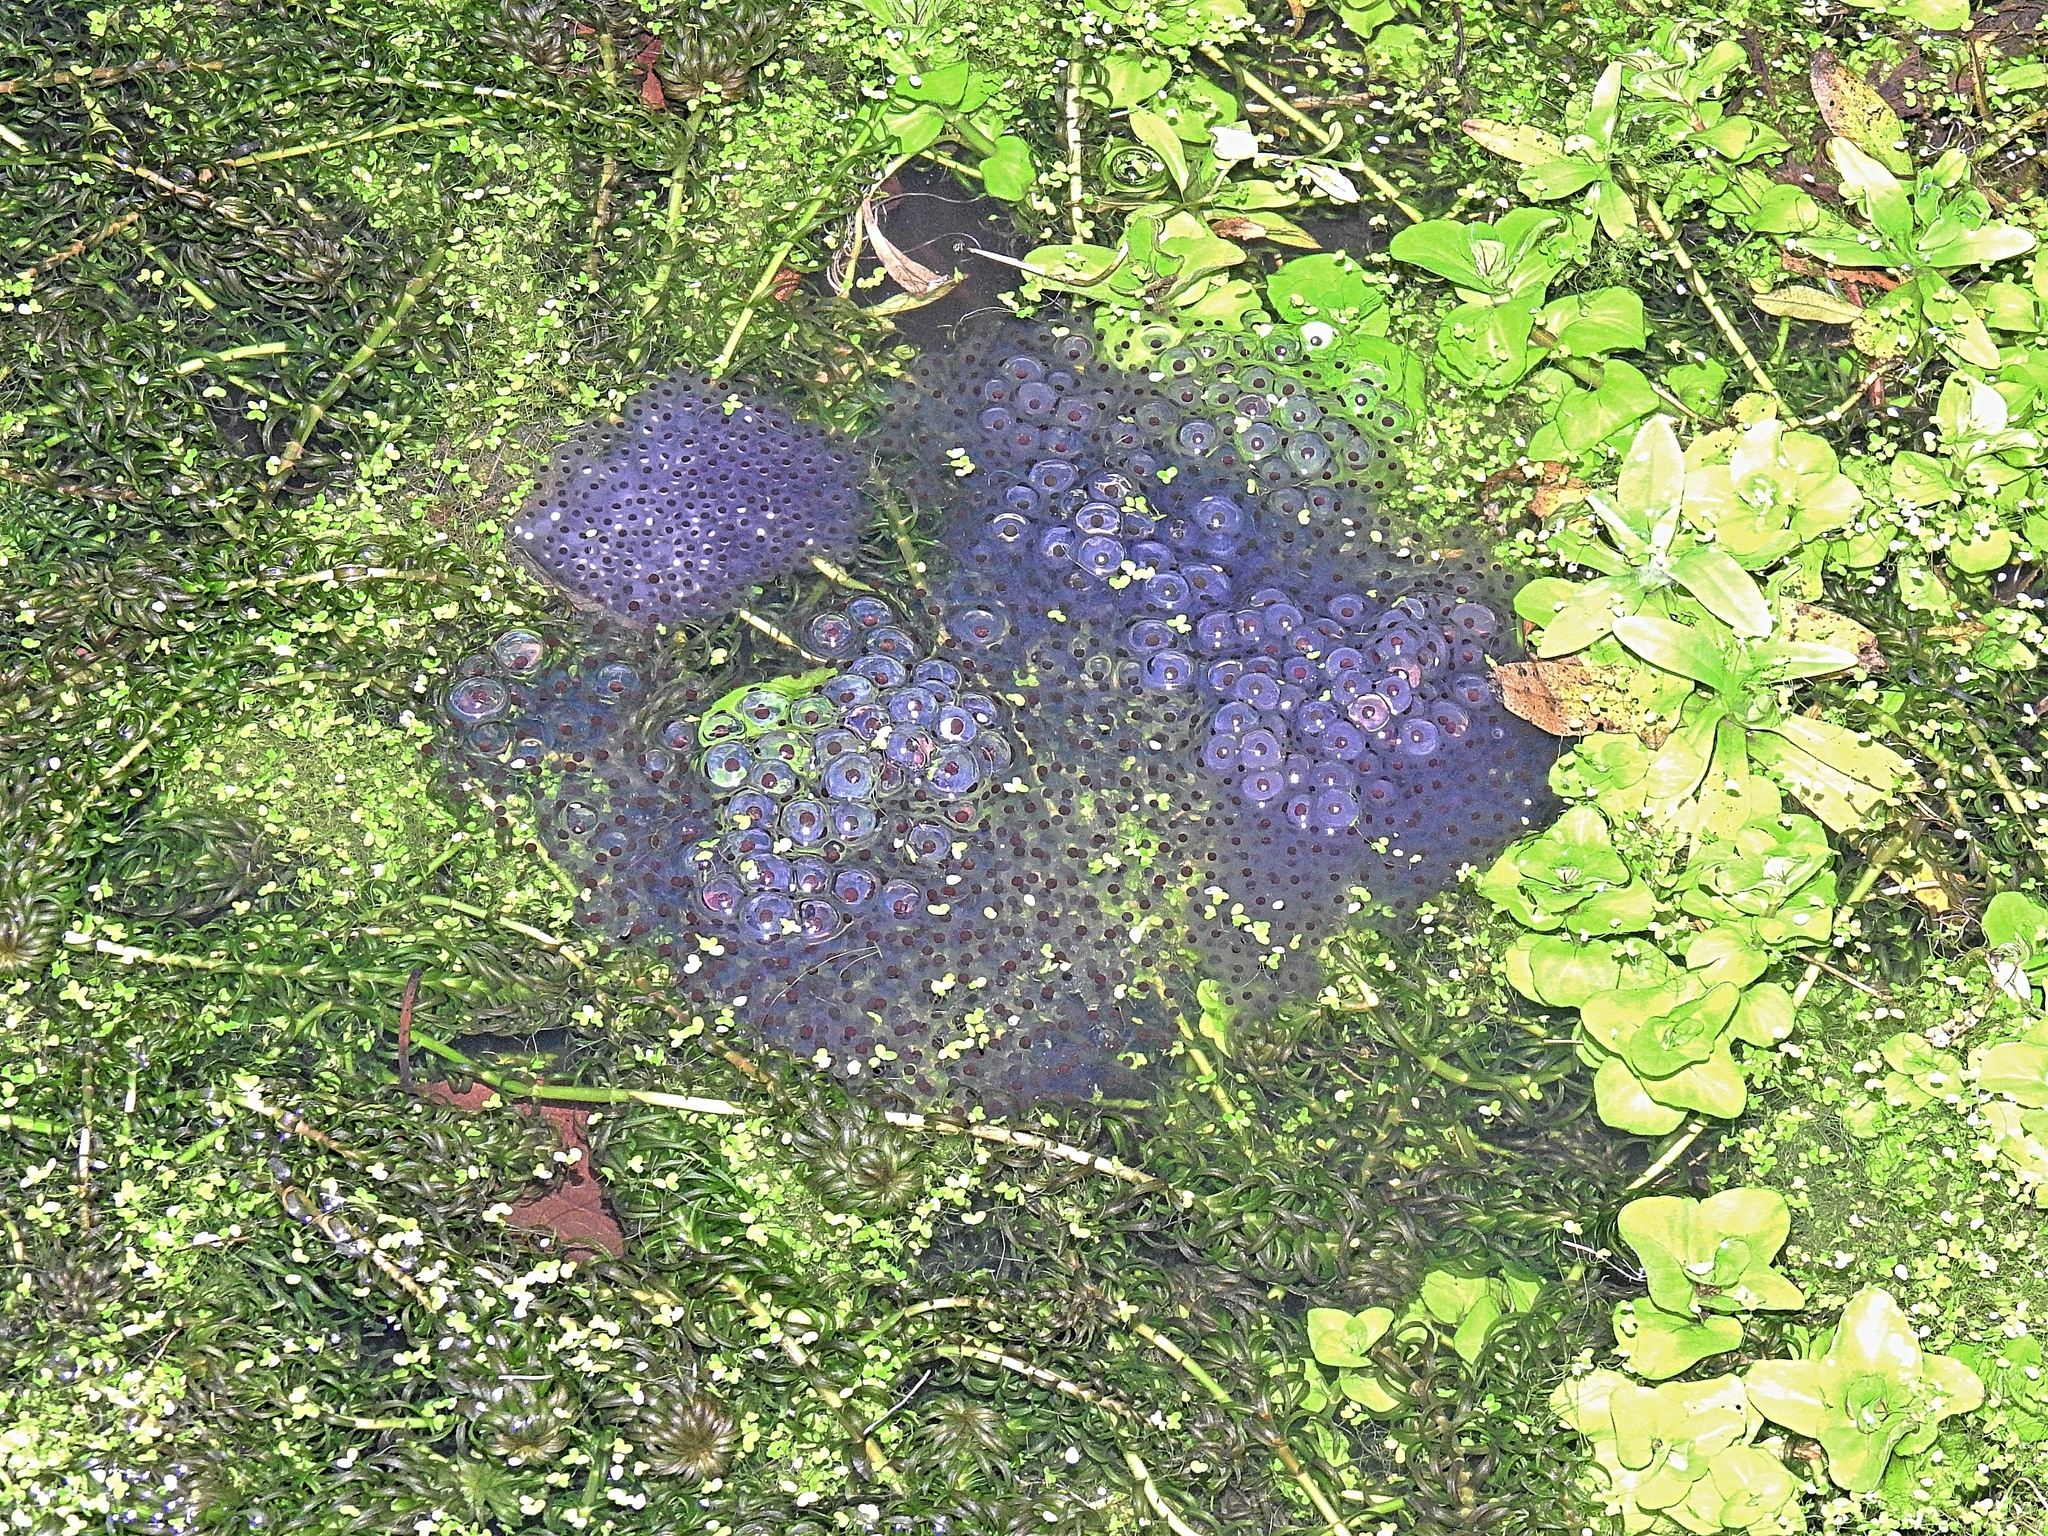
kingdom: Animalia
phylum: Chordata
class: Amphibia
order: Anura
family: Ranidae
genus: Rana
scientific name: Rana temporaria
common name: Common frog
